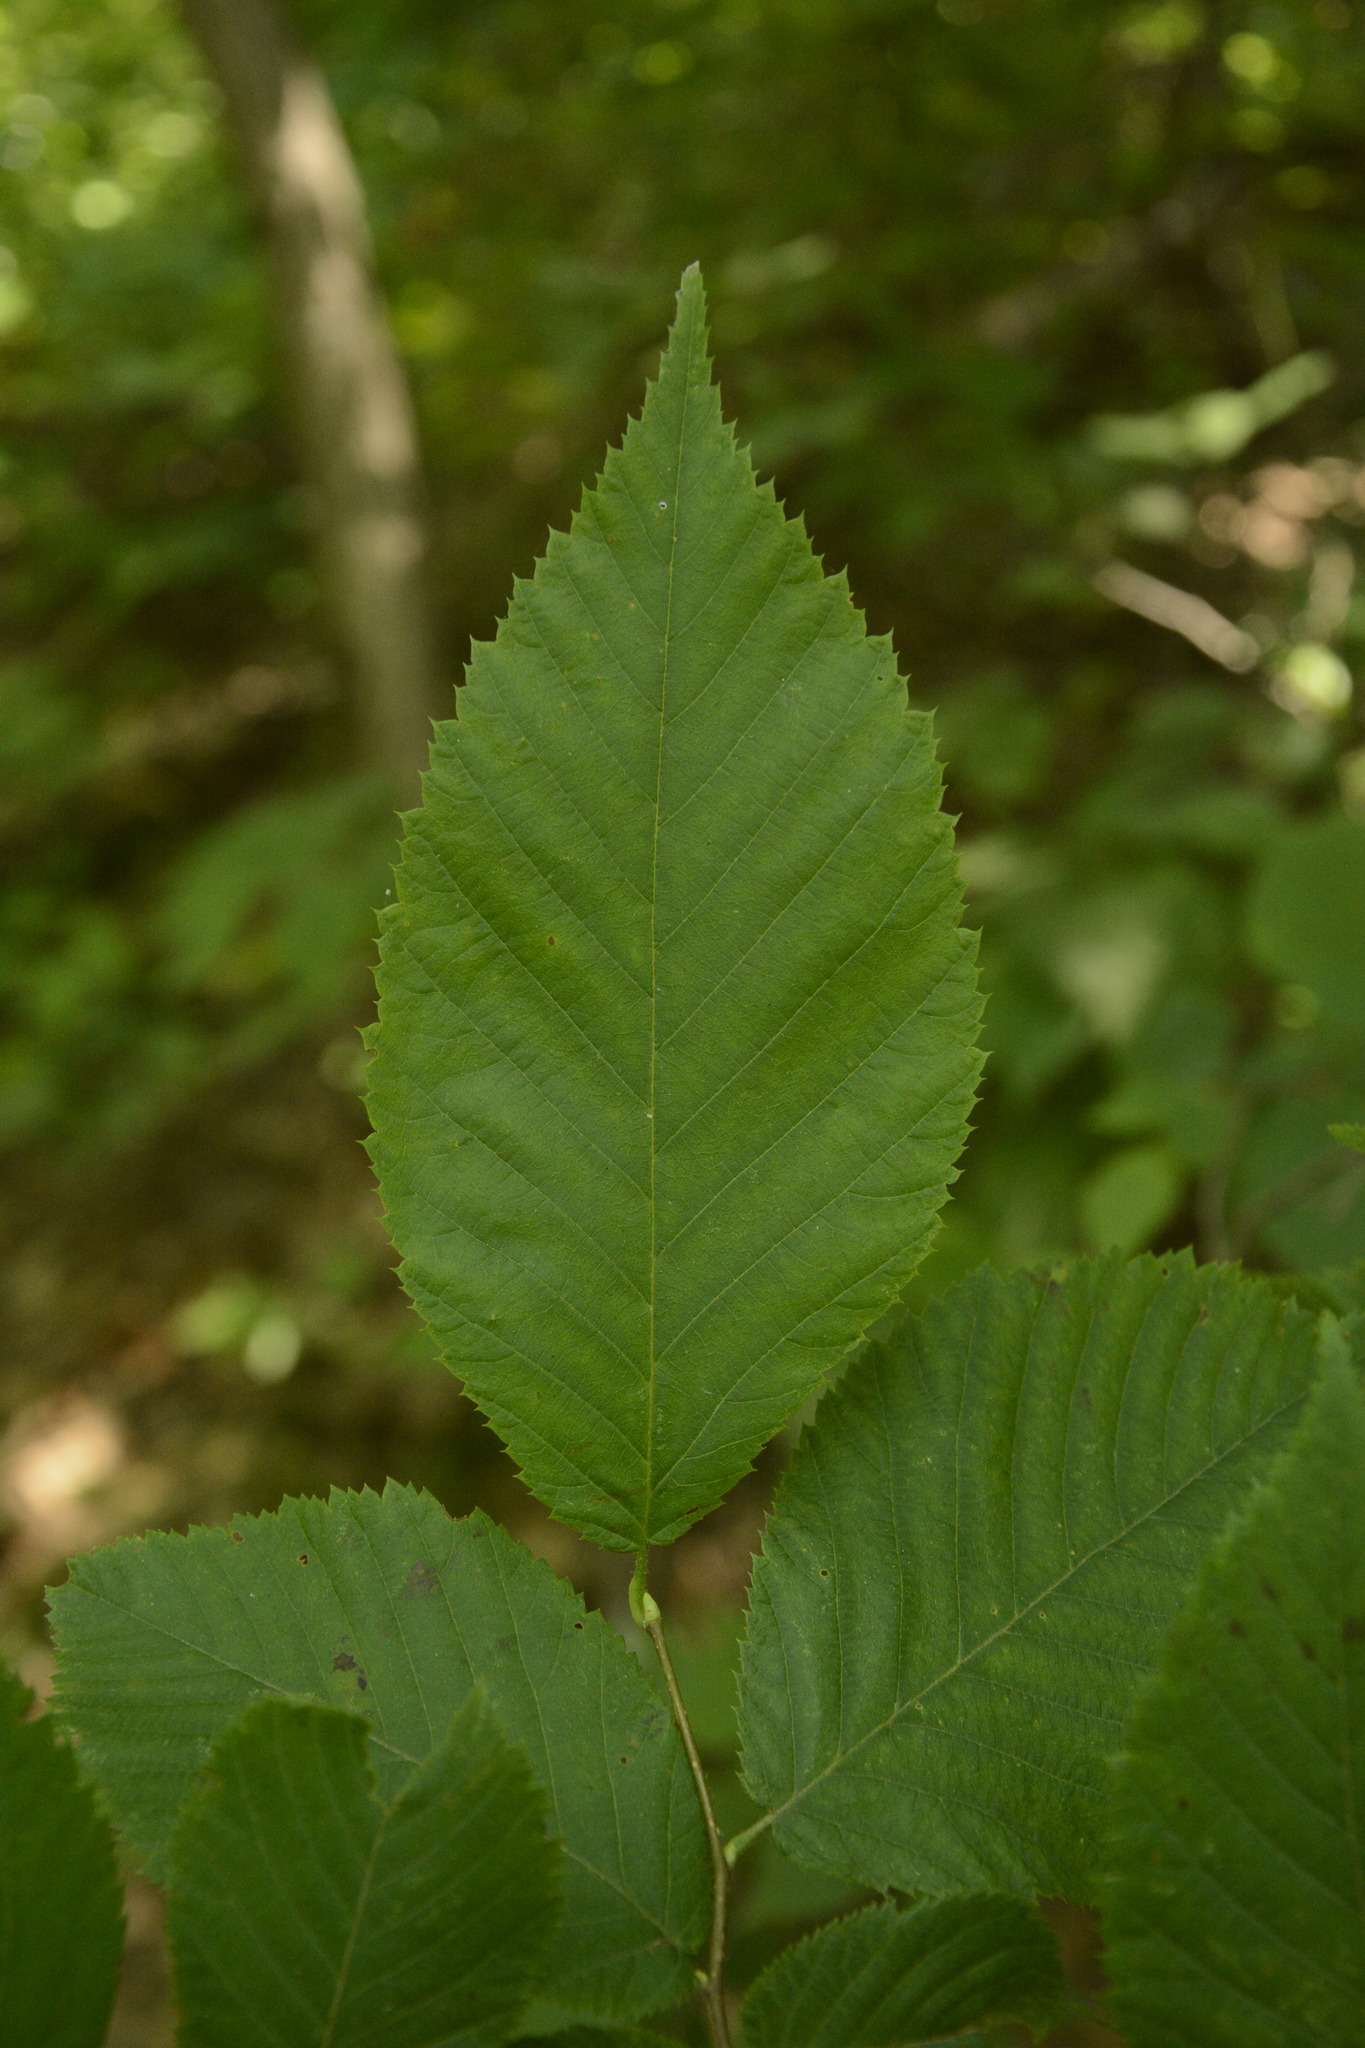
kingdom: Plantae
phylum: Tracheophyta
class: Magnoliopsida
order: Fagales
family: Betulaceae
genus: Ostrya
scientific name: Ostrya virginiana
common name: Ironwood
